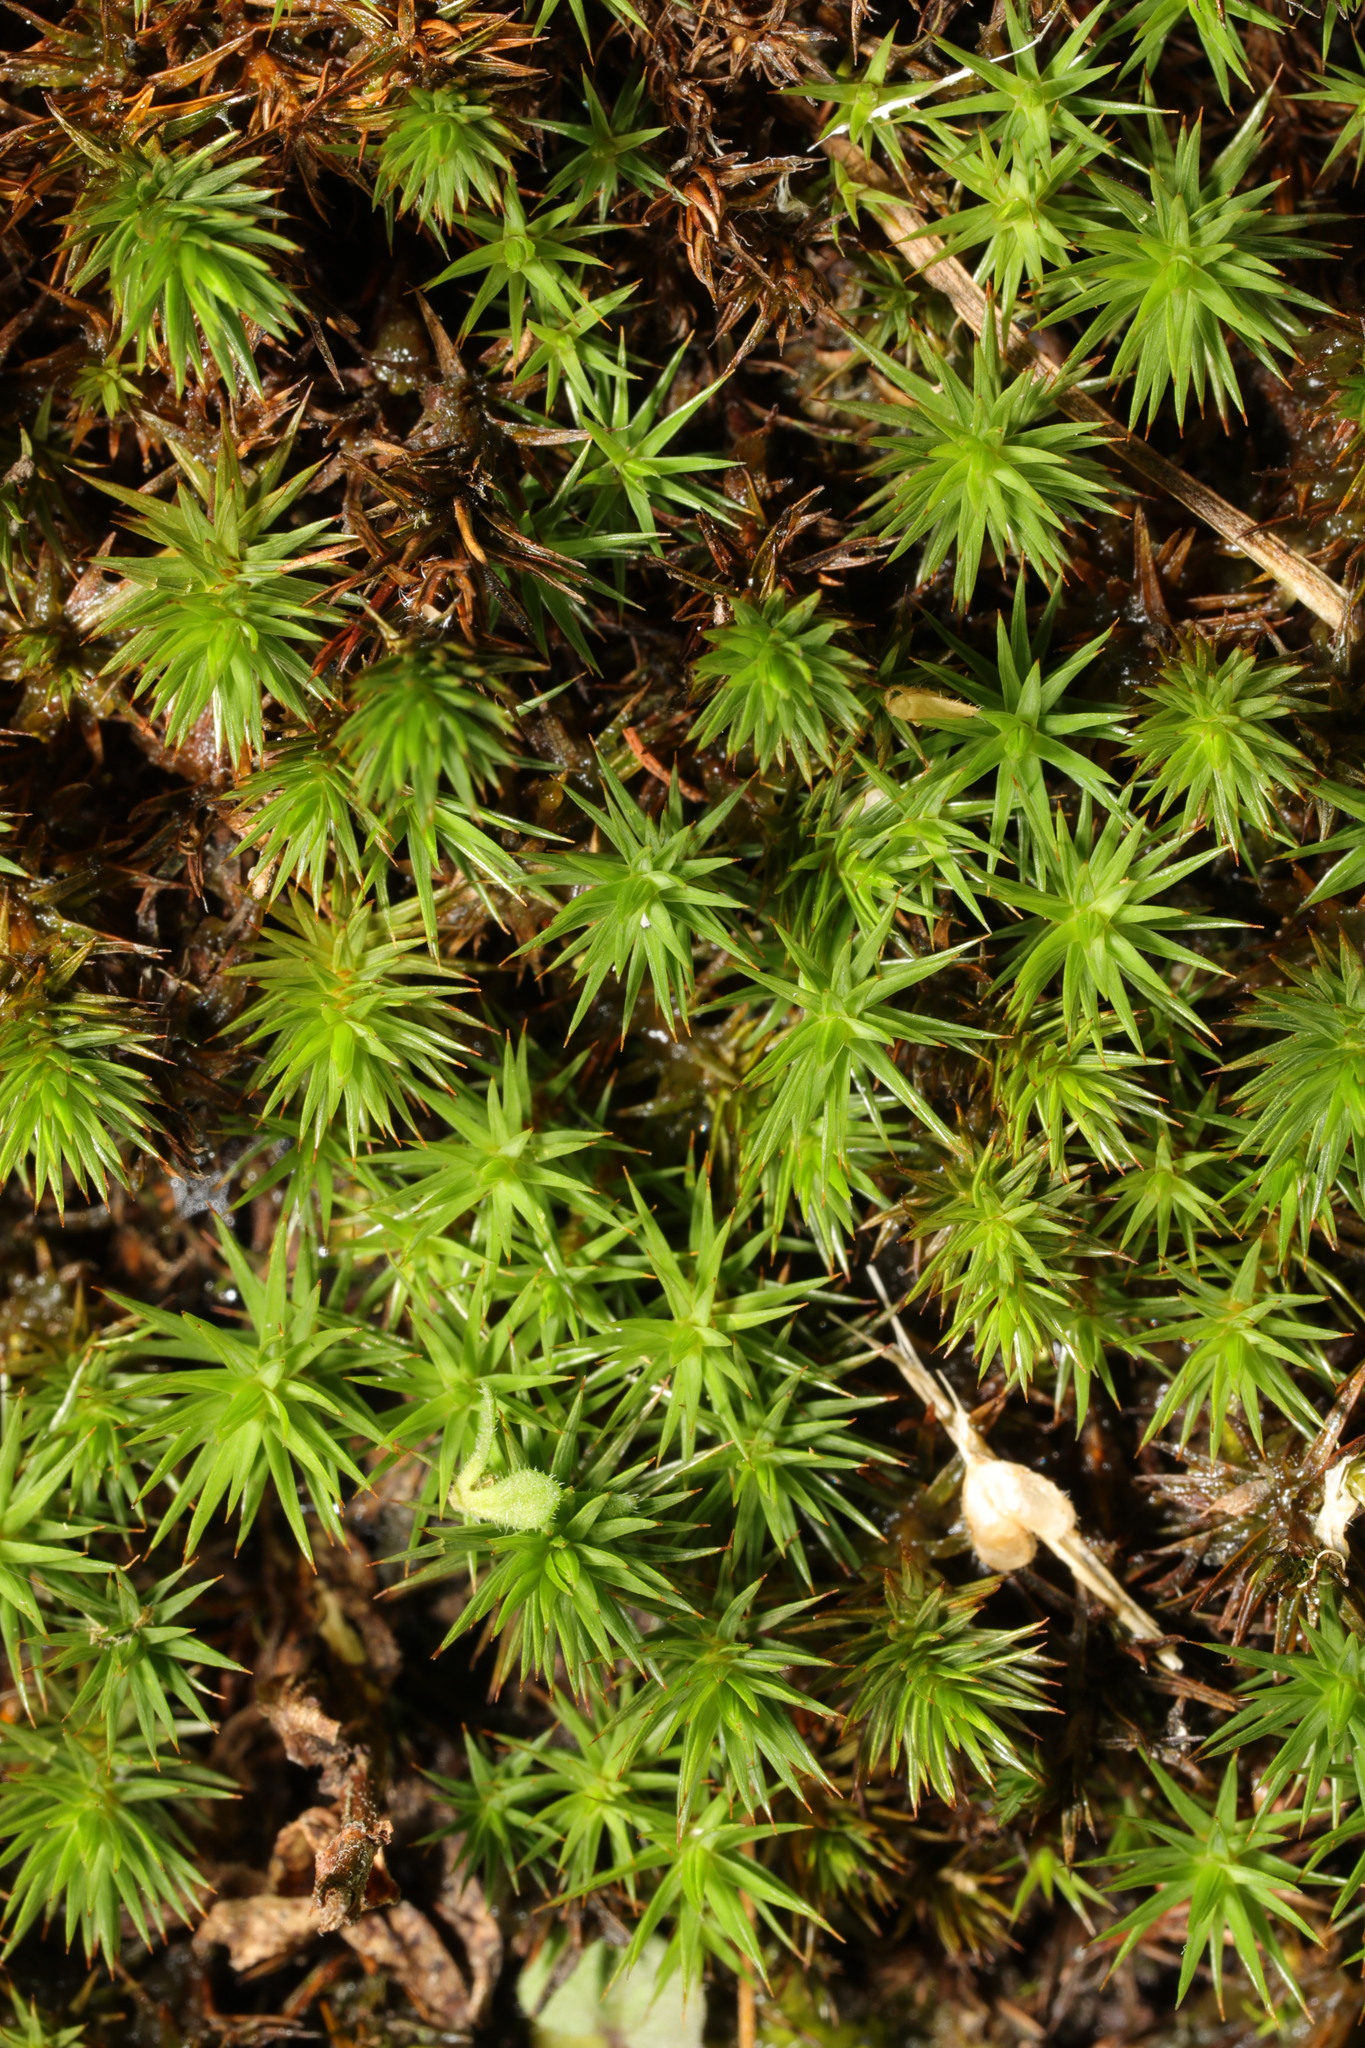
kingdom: Plantae
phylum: Bryophyta
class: Polytrichopsida
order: Polytrichales
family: Polytrichaceae
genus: Polytrichum
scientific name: Polytrichum juniperinum
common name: Juniper haircap moss
